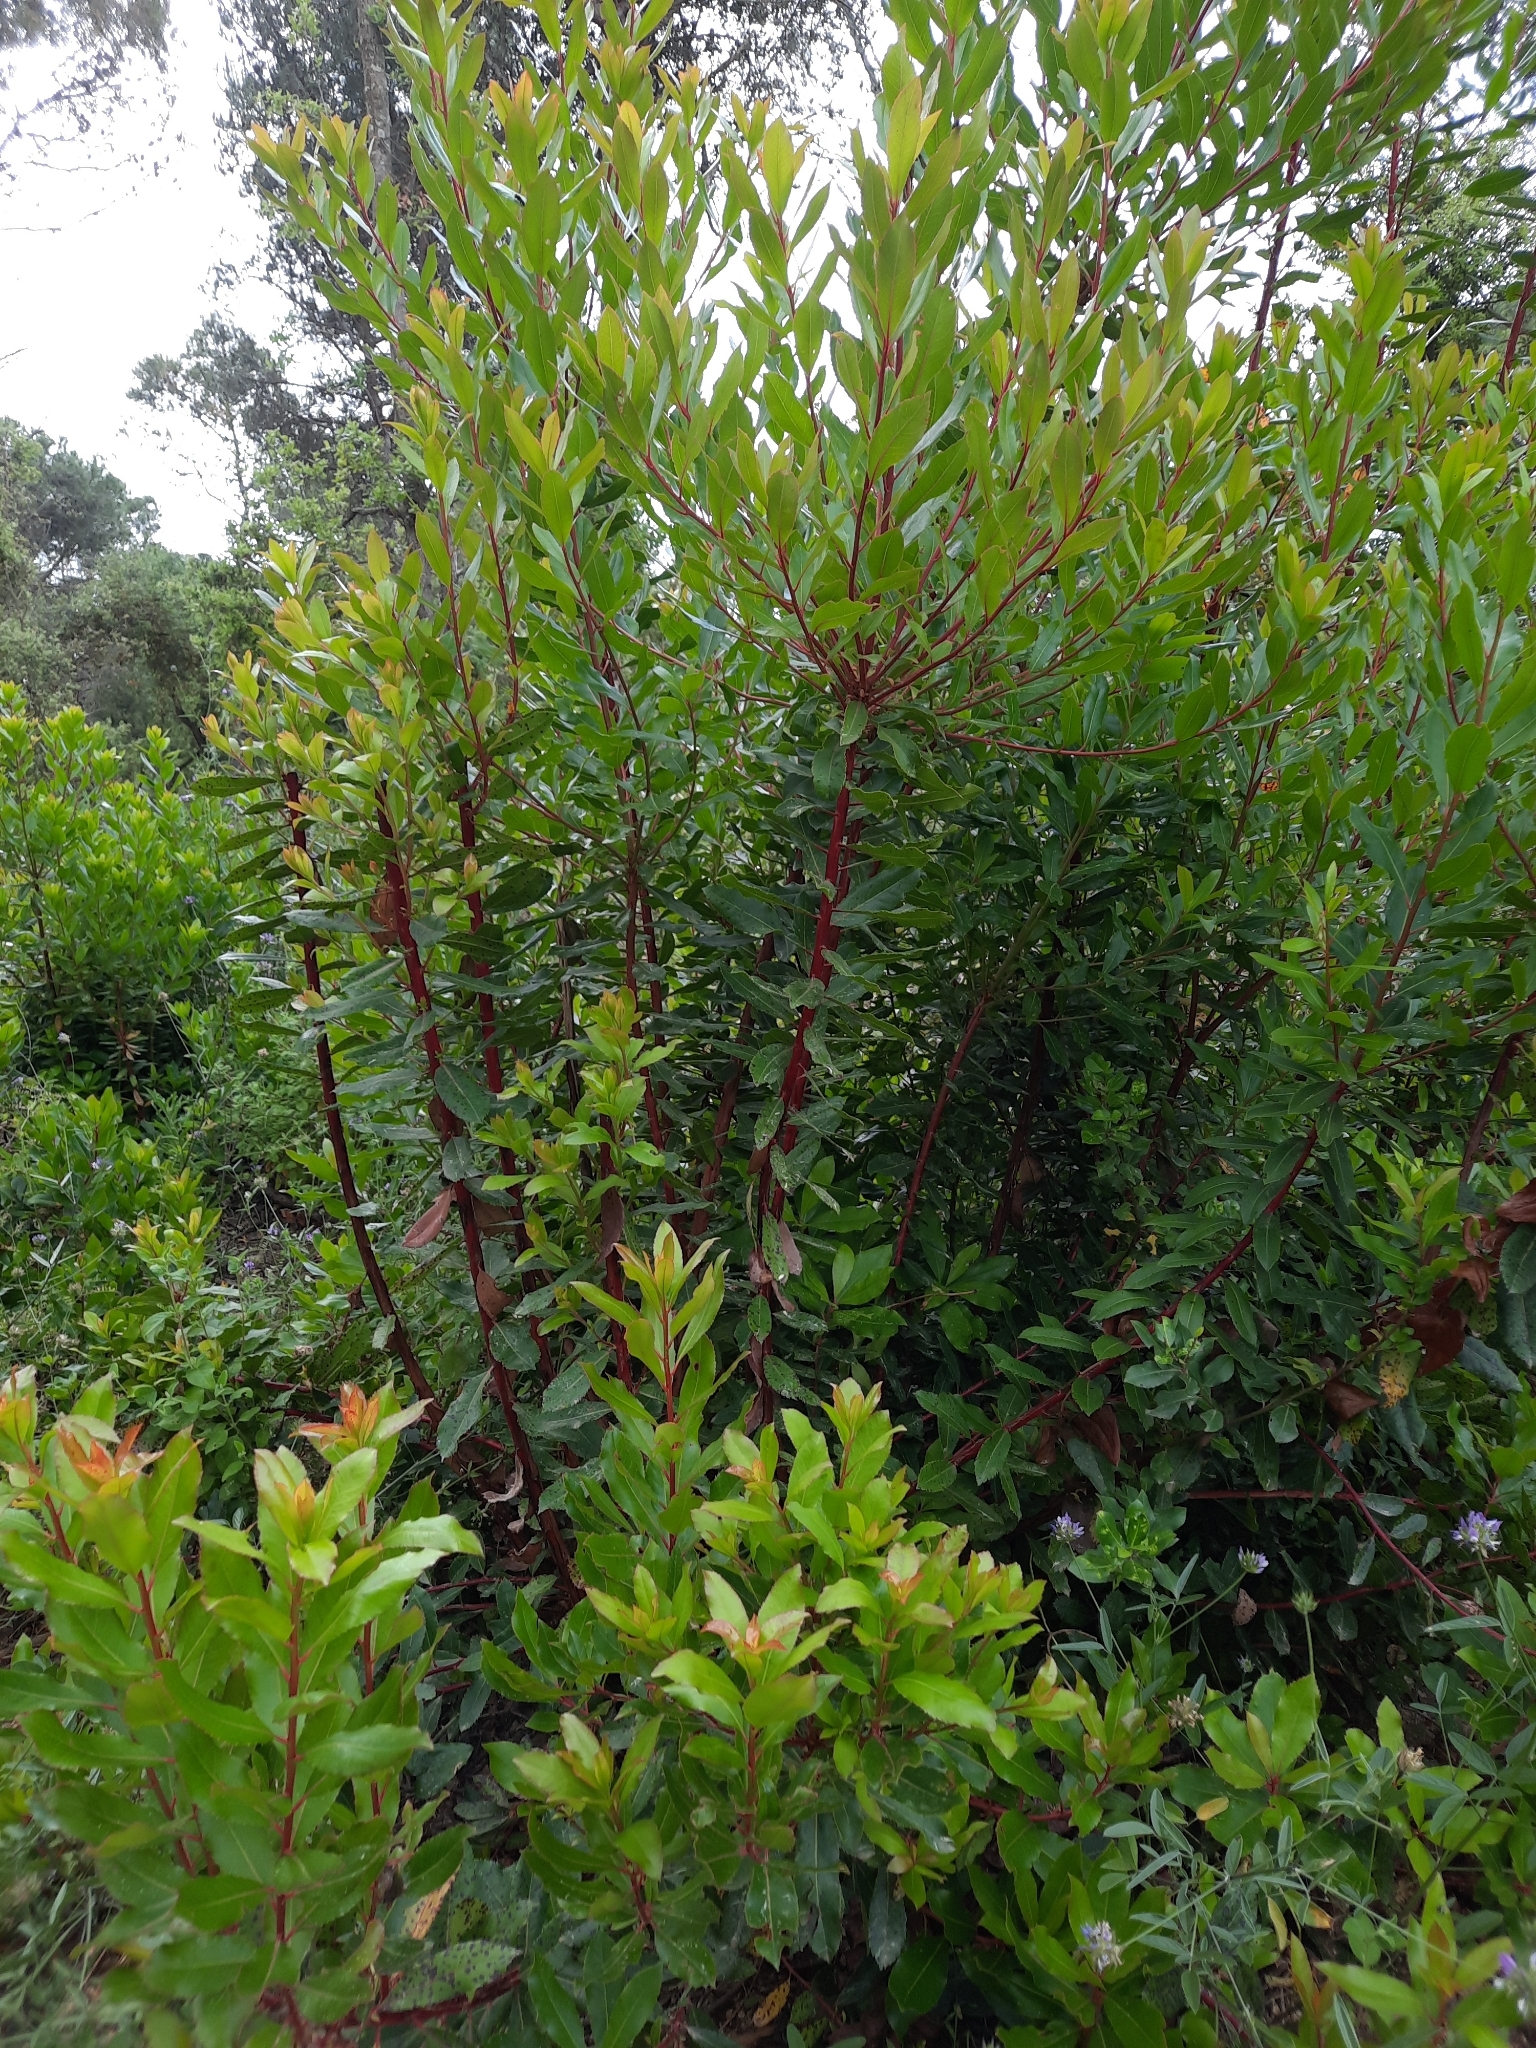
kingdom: Plantae
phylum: Tracheophyta
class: Magnoliopsida
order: Ericales
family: Ericaceae
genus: Arbutus
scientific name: Arbutus unedo
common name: Strawberry-tree
